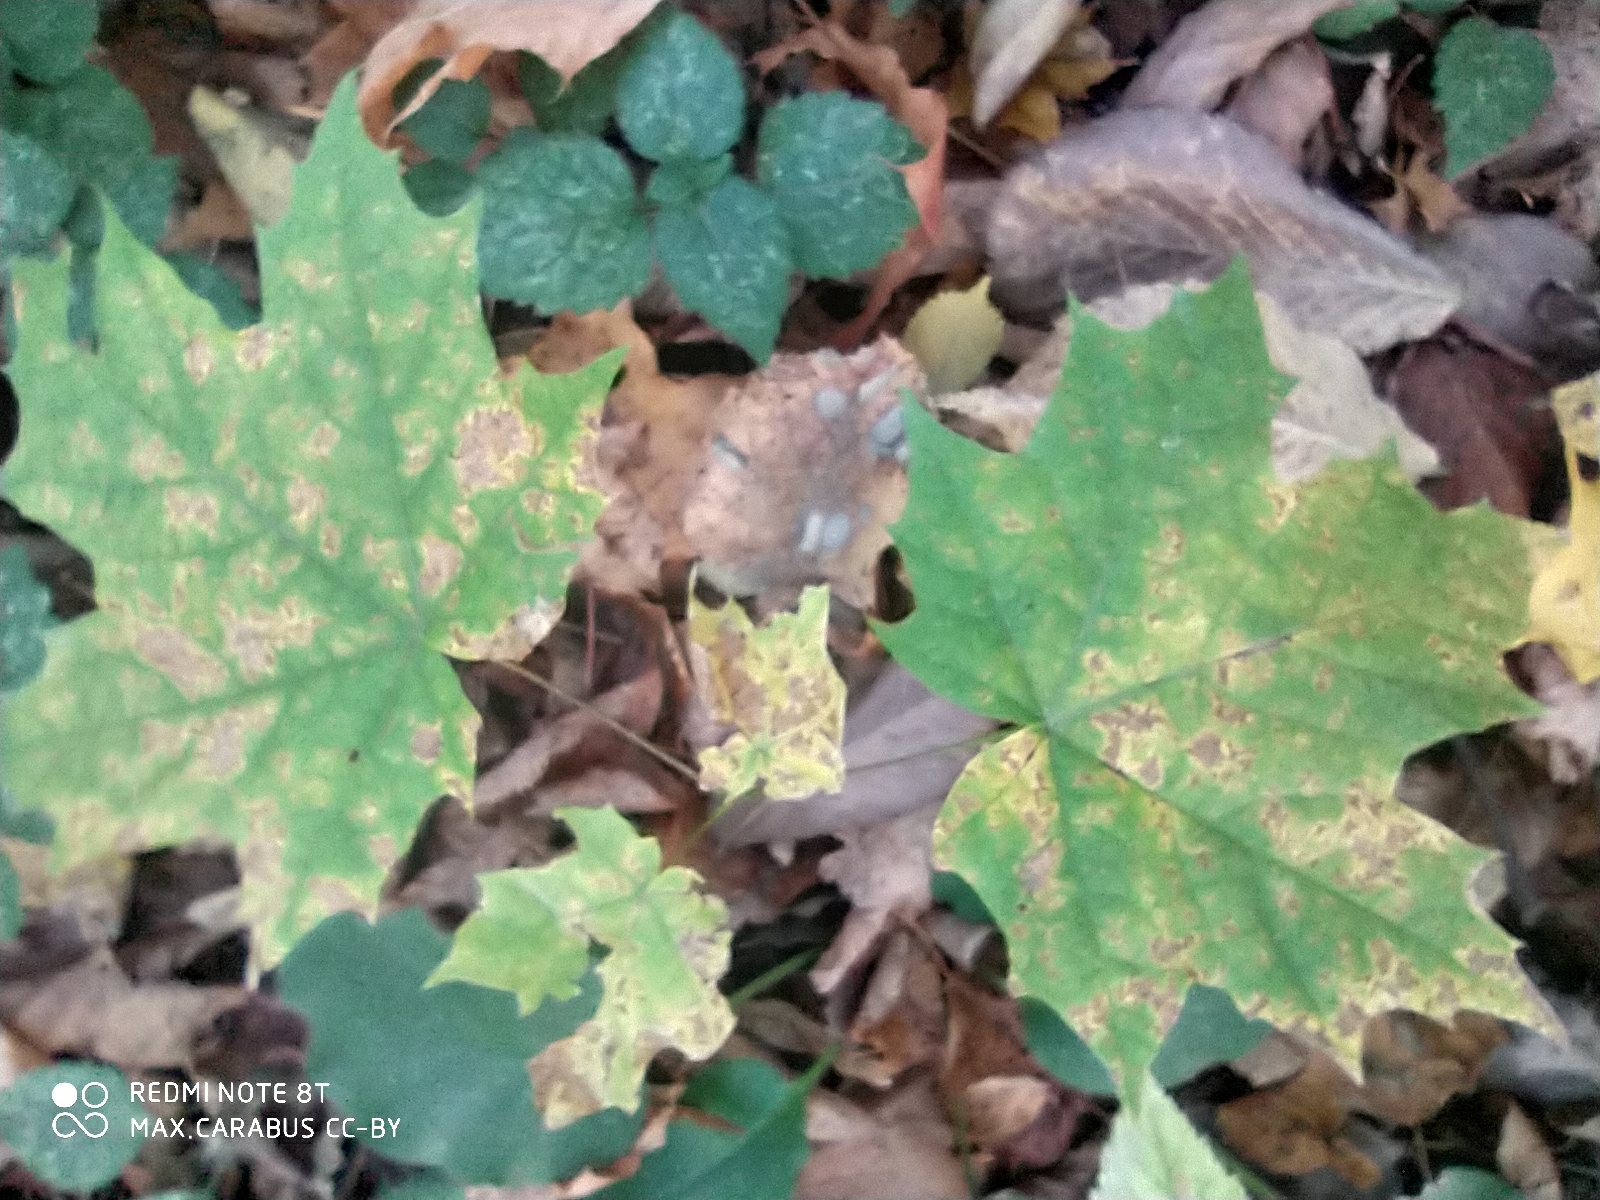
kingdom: Plantae
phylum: Tracheophyta
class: Magnoliopsida
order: Sapindales
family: Sapindaceae
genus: Acer
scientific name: Acer platanoides
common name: Norway maple
